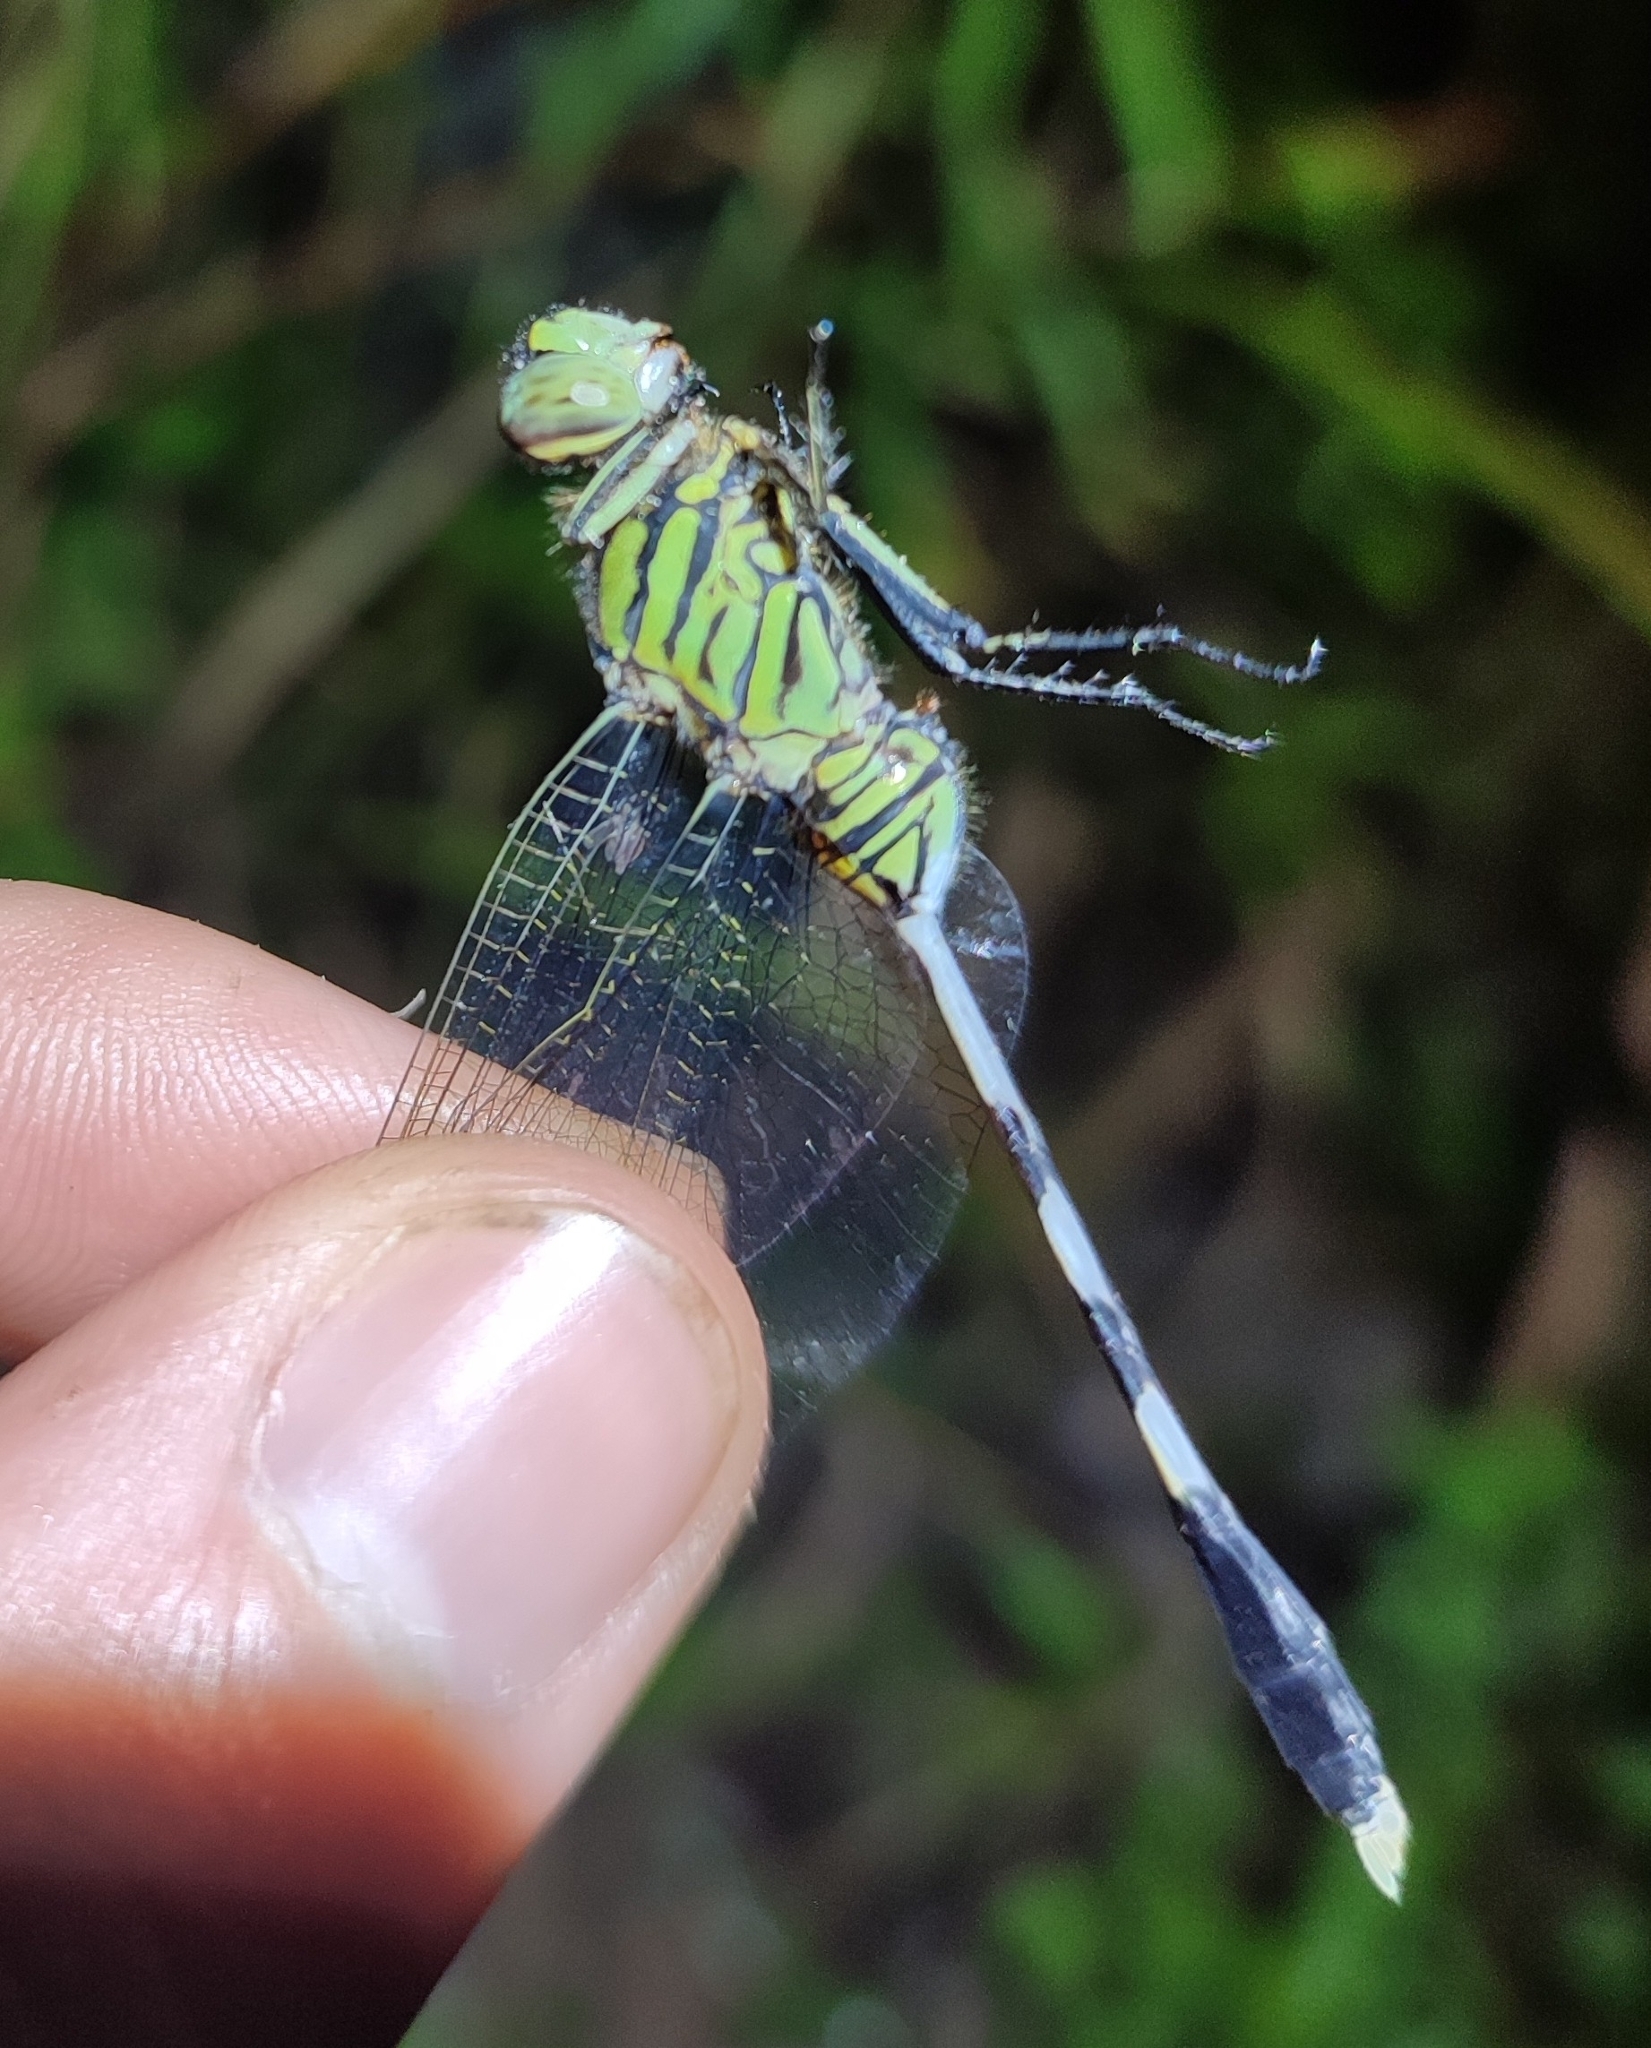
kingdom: Animalia
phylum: Arthropoda
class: Insecta
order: Odonata
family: Libellulidae
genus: Orthetrum
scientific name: Orthetrum sabina
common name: Slender skimmer
